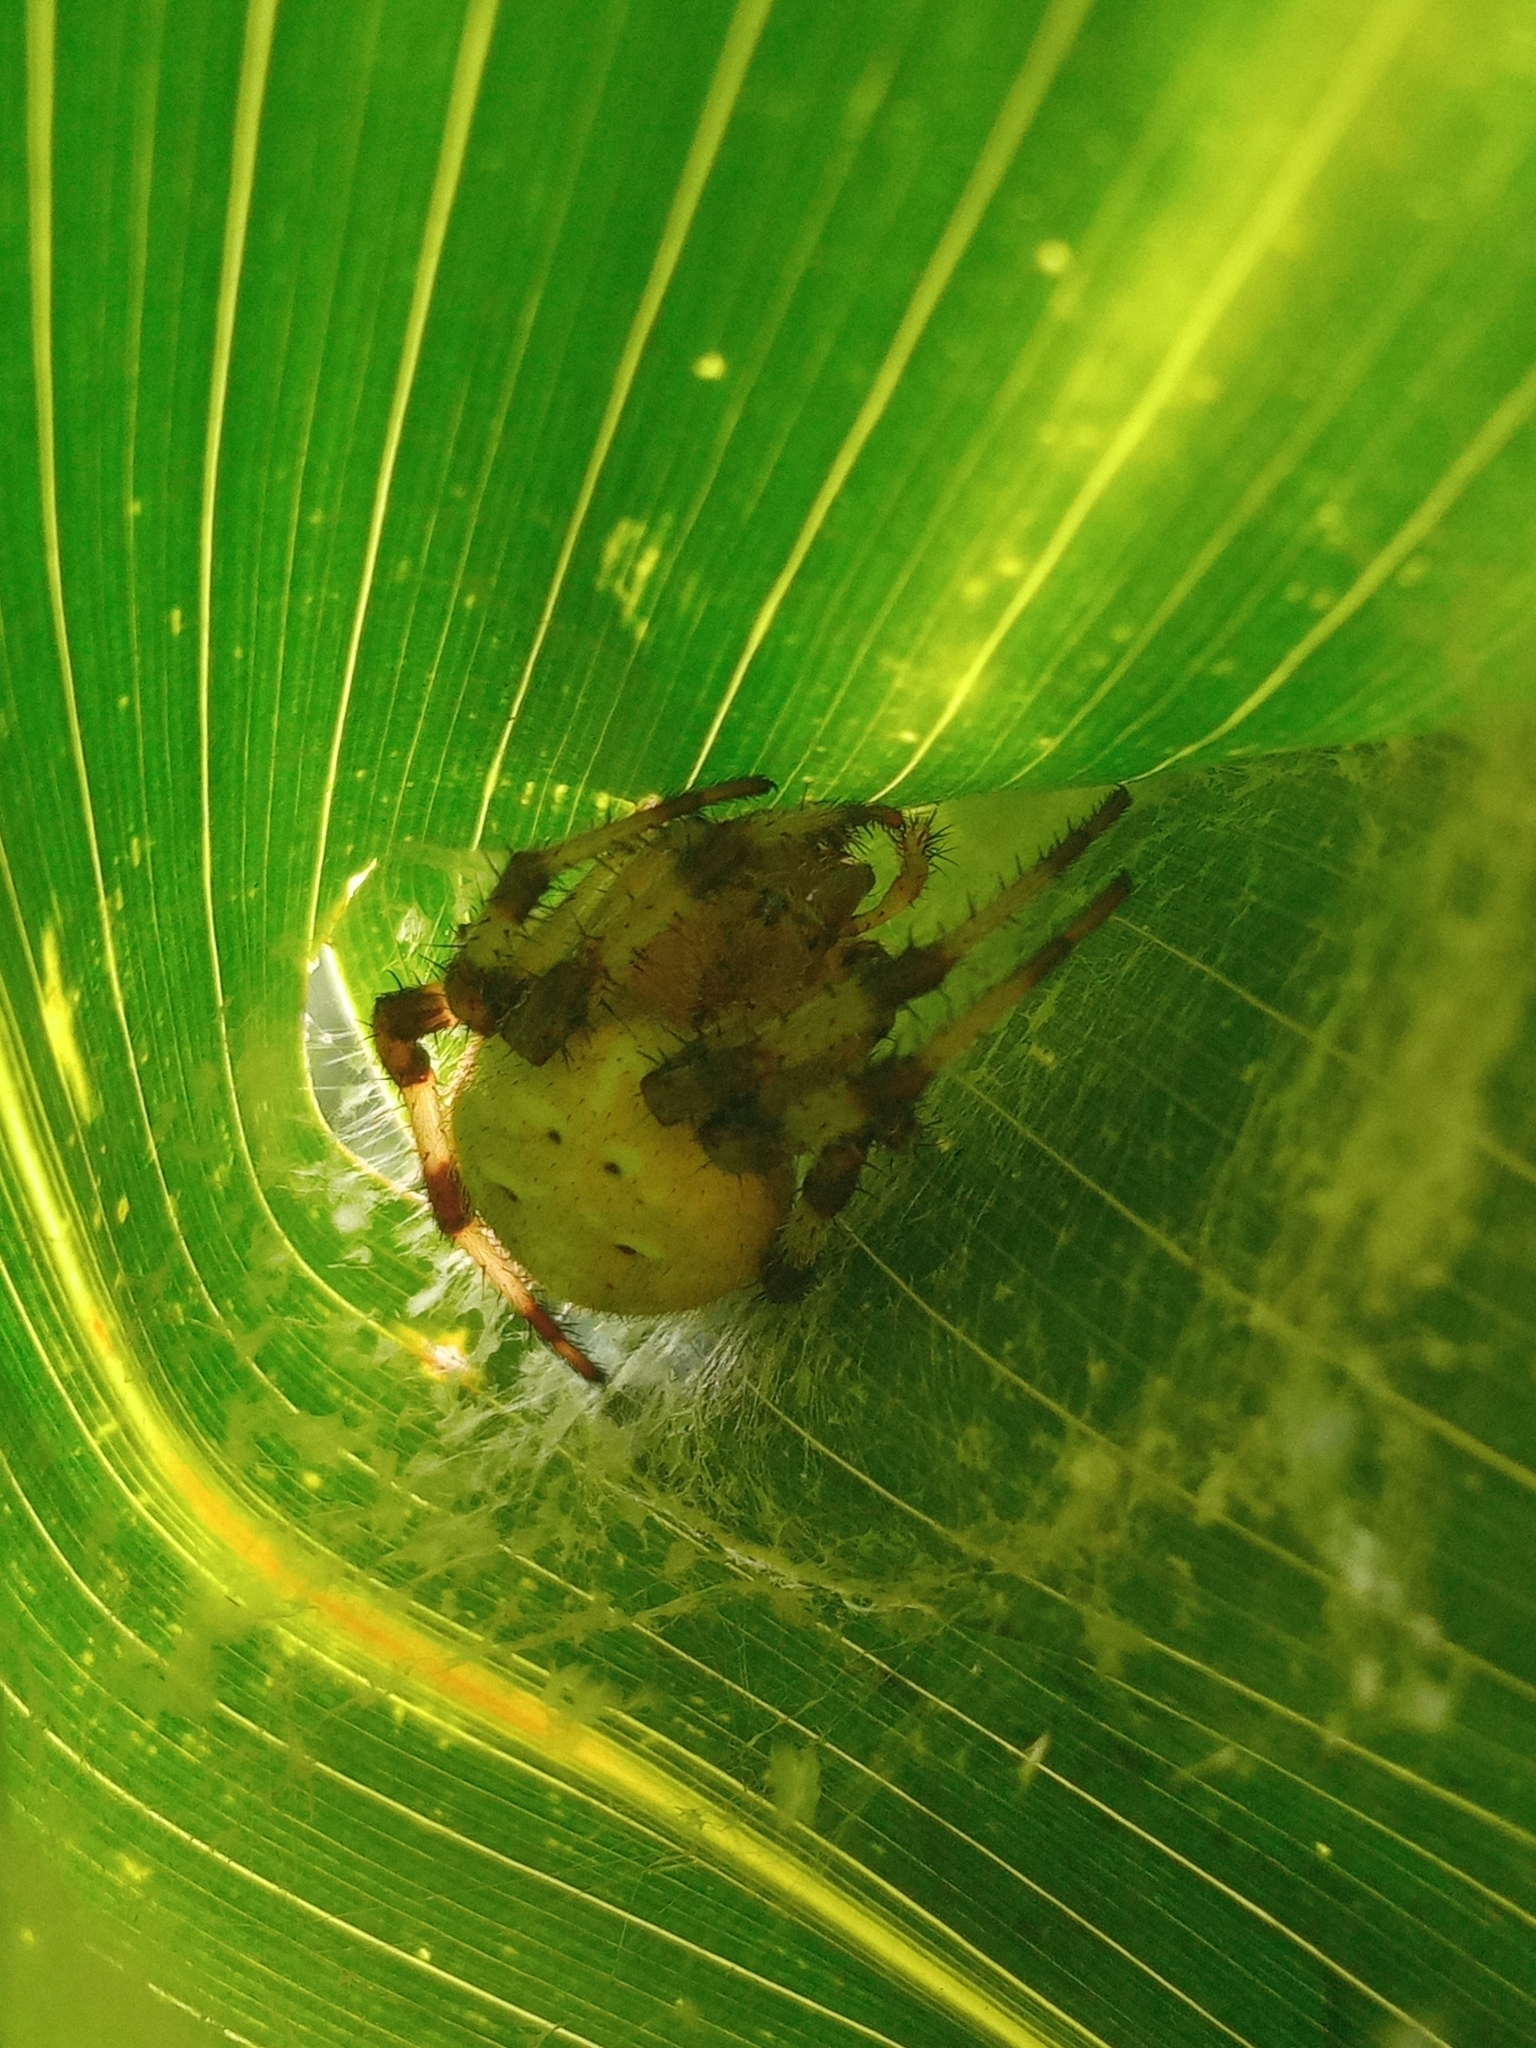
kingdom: Animalia
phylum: Arthropoda
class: Arachnida
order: Araneae
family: Araneidae
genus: Araneus
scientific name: Araneus quadratus
